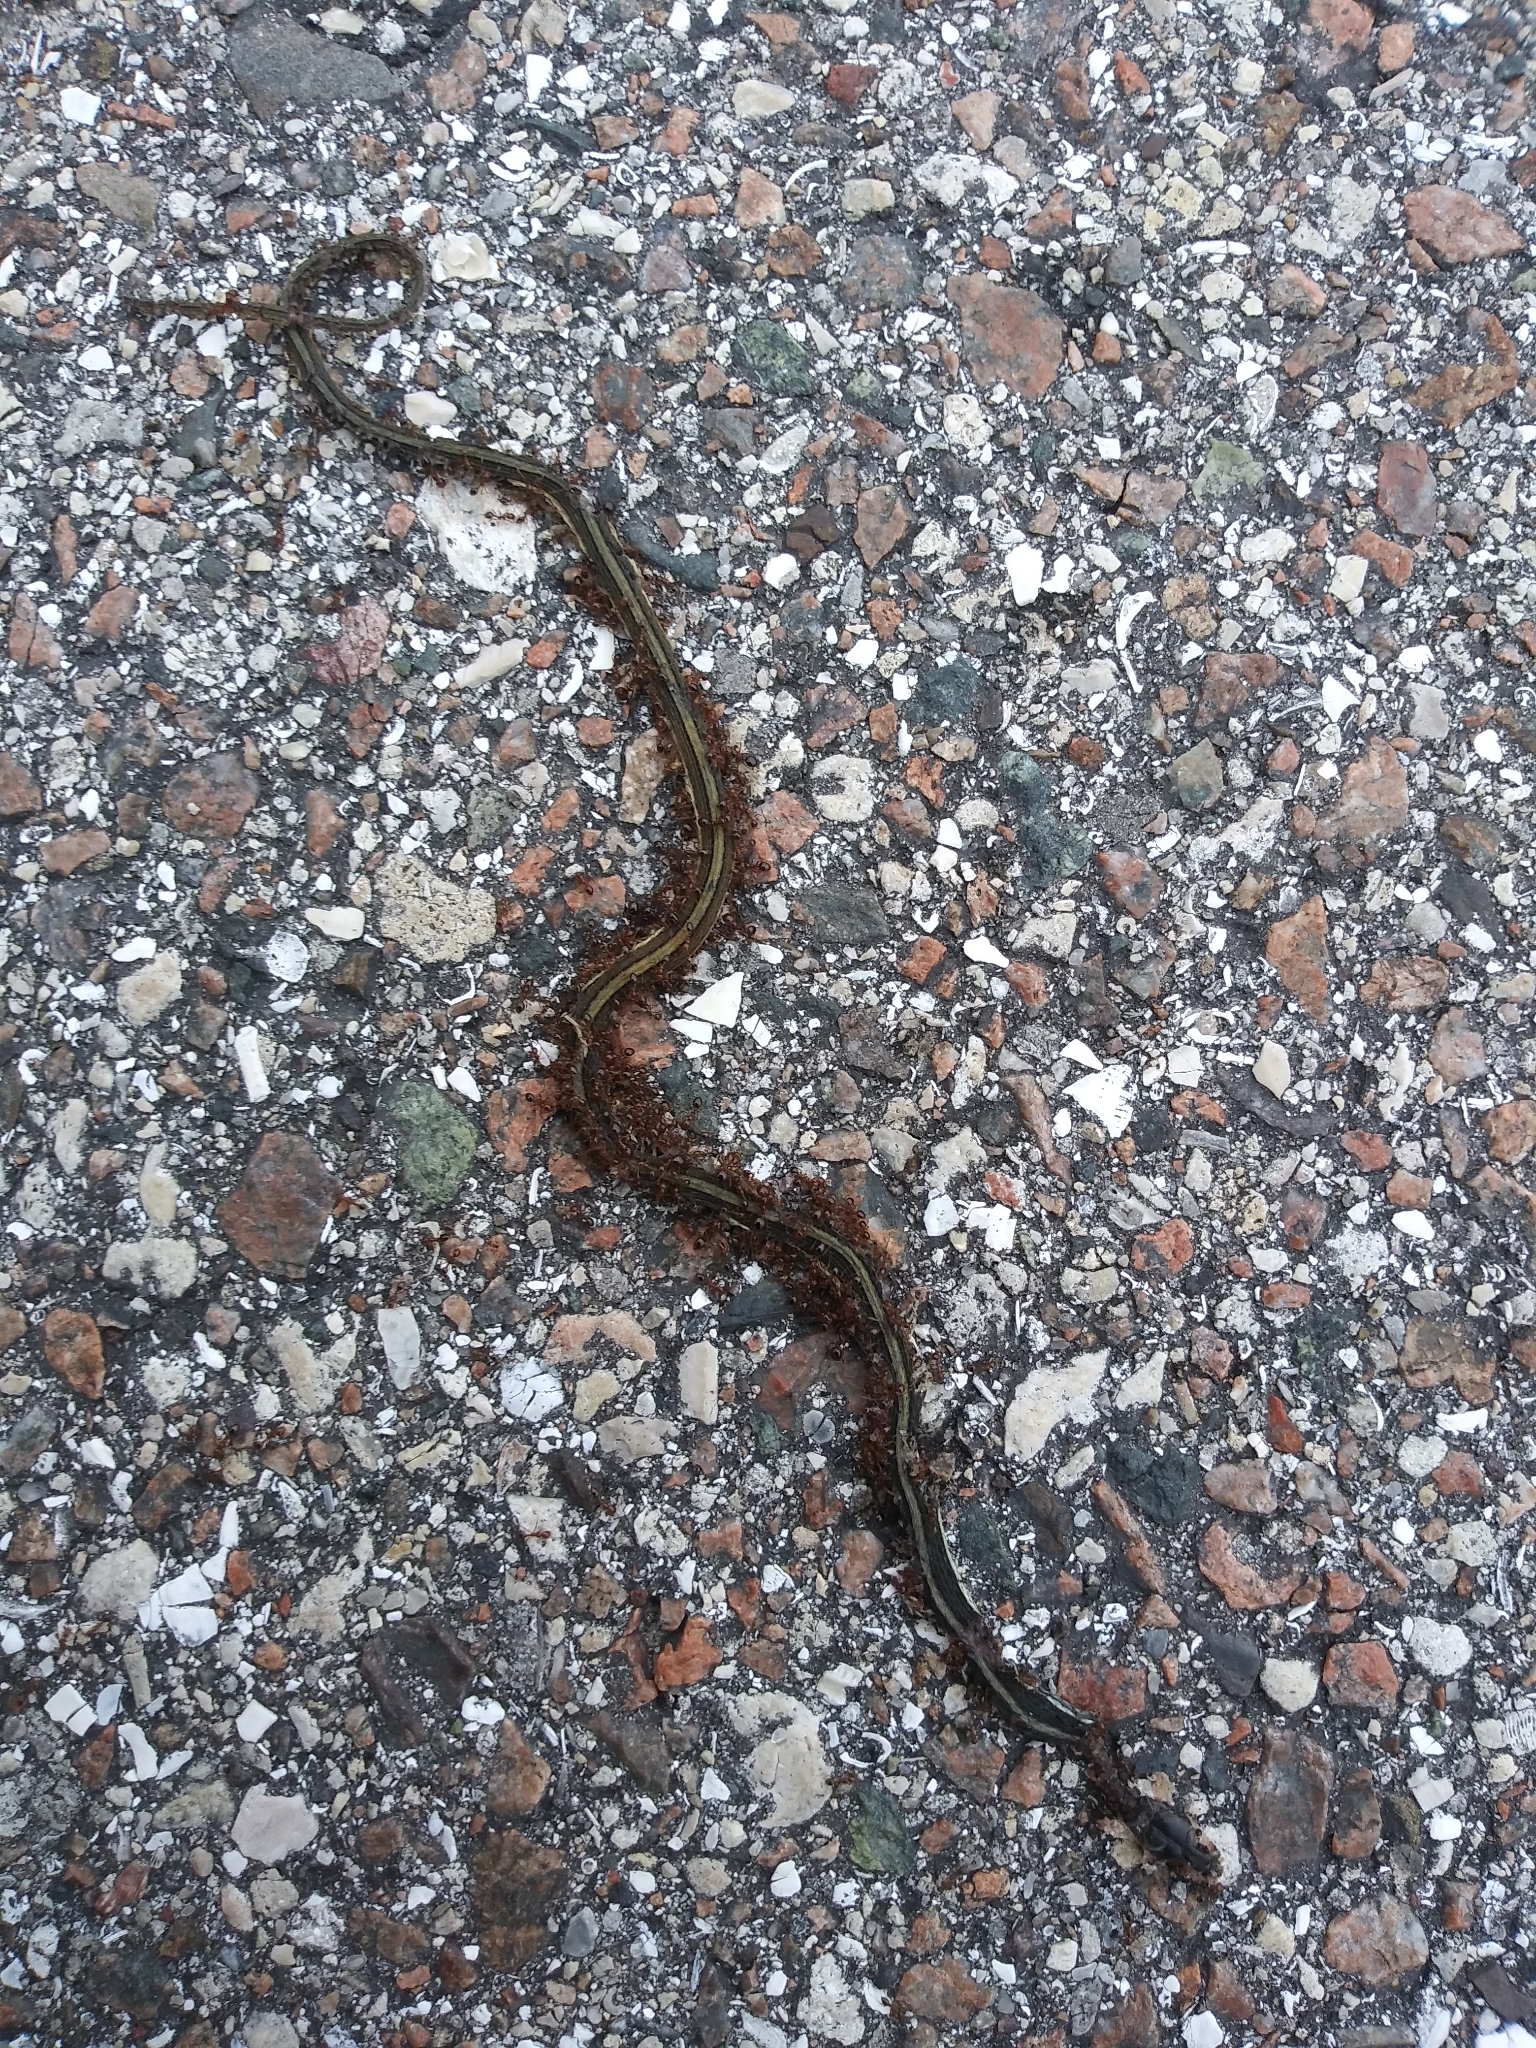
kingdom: Animalia
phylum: Chordata
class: Squamata
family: Colubridae
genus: Thamnophis
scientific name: Thamnophis saurita
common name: Eastern ribbonsnake
